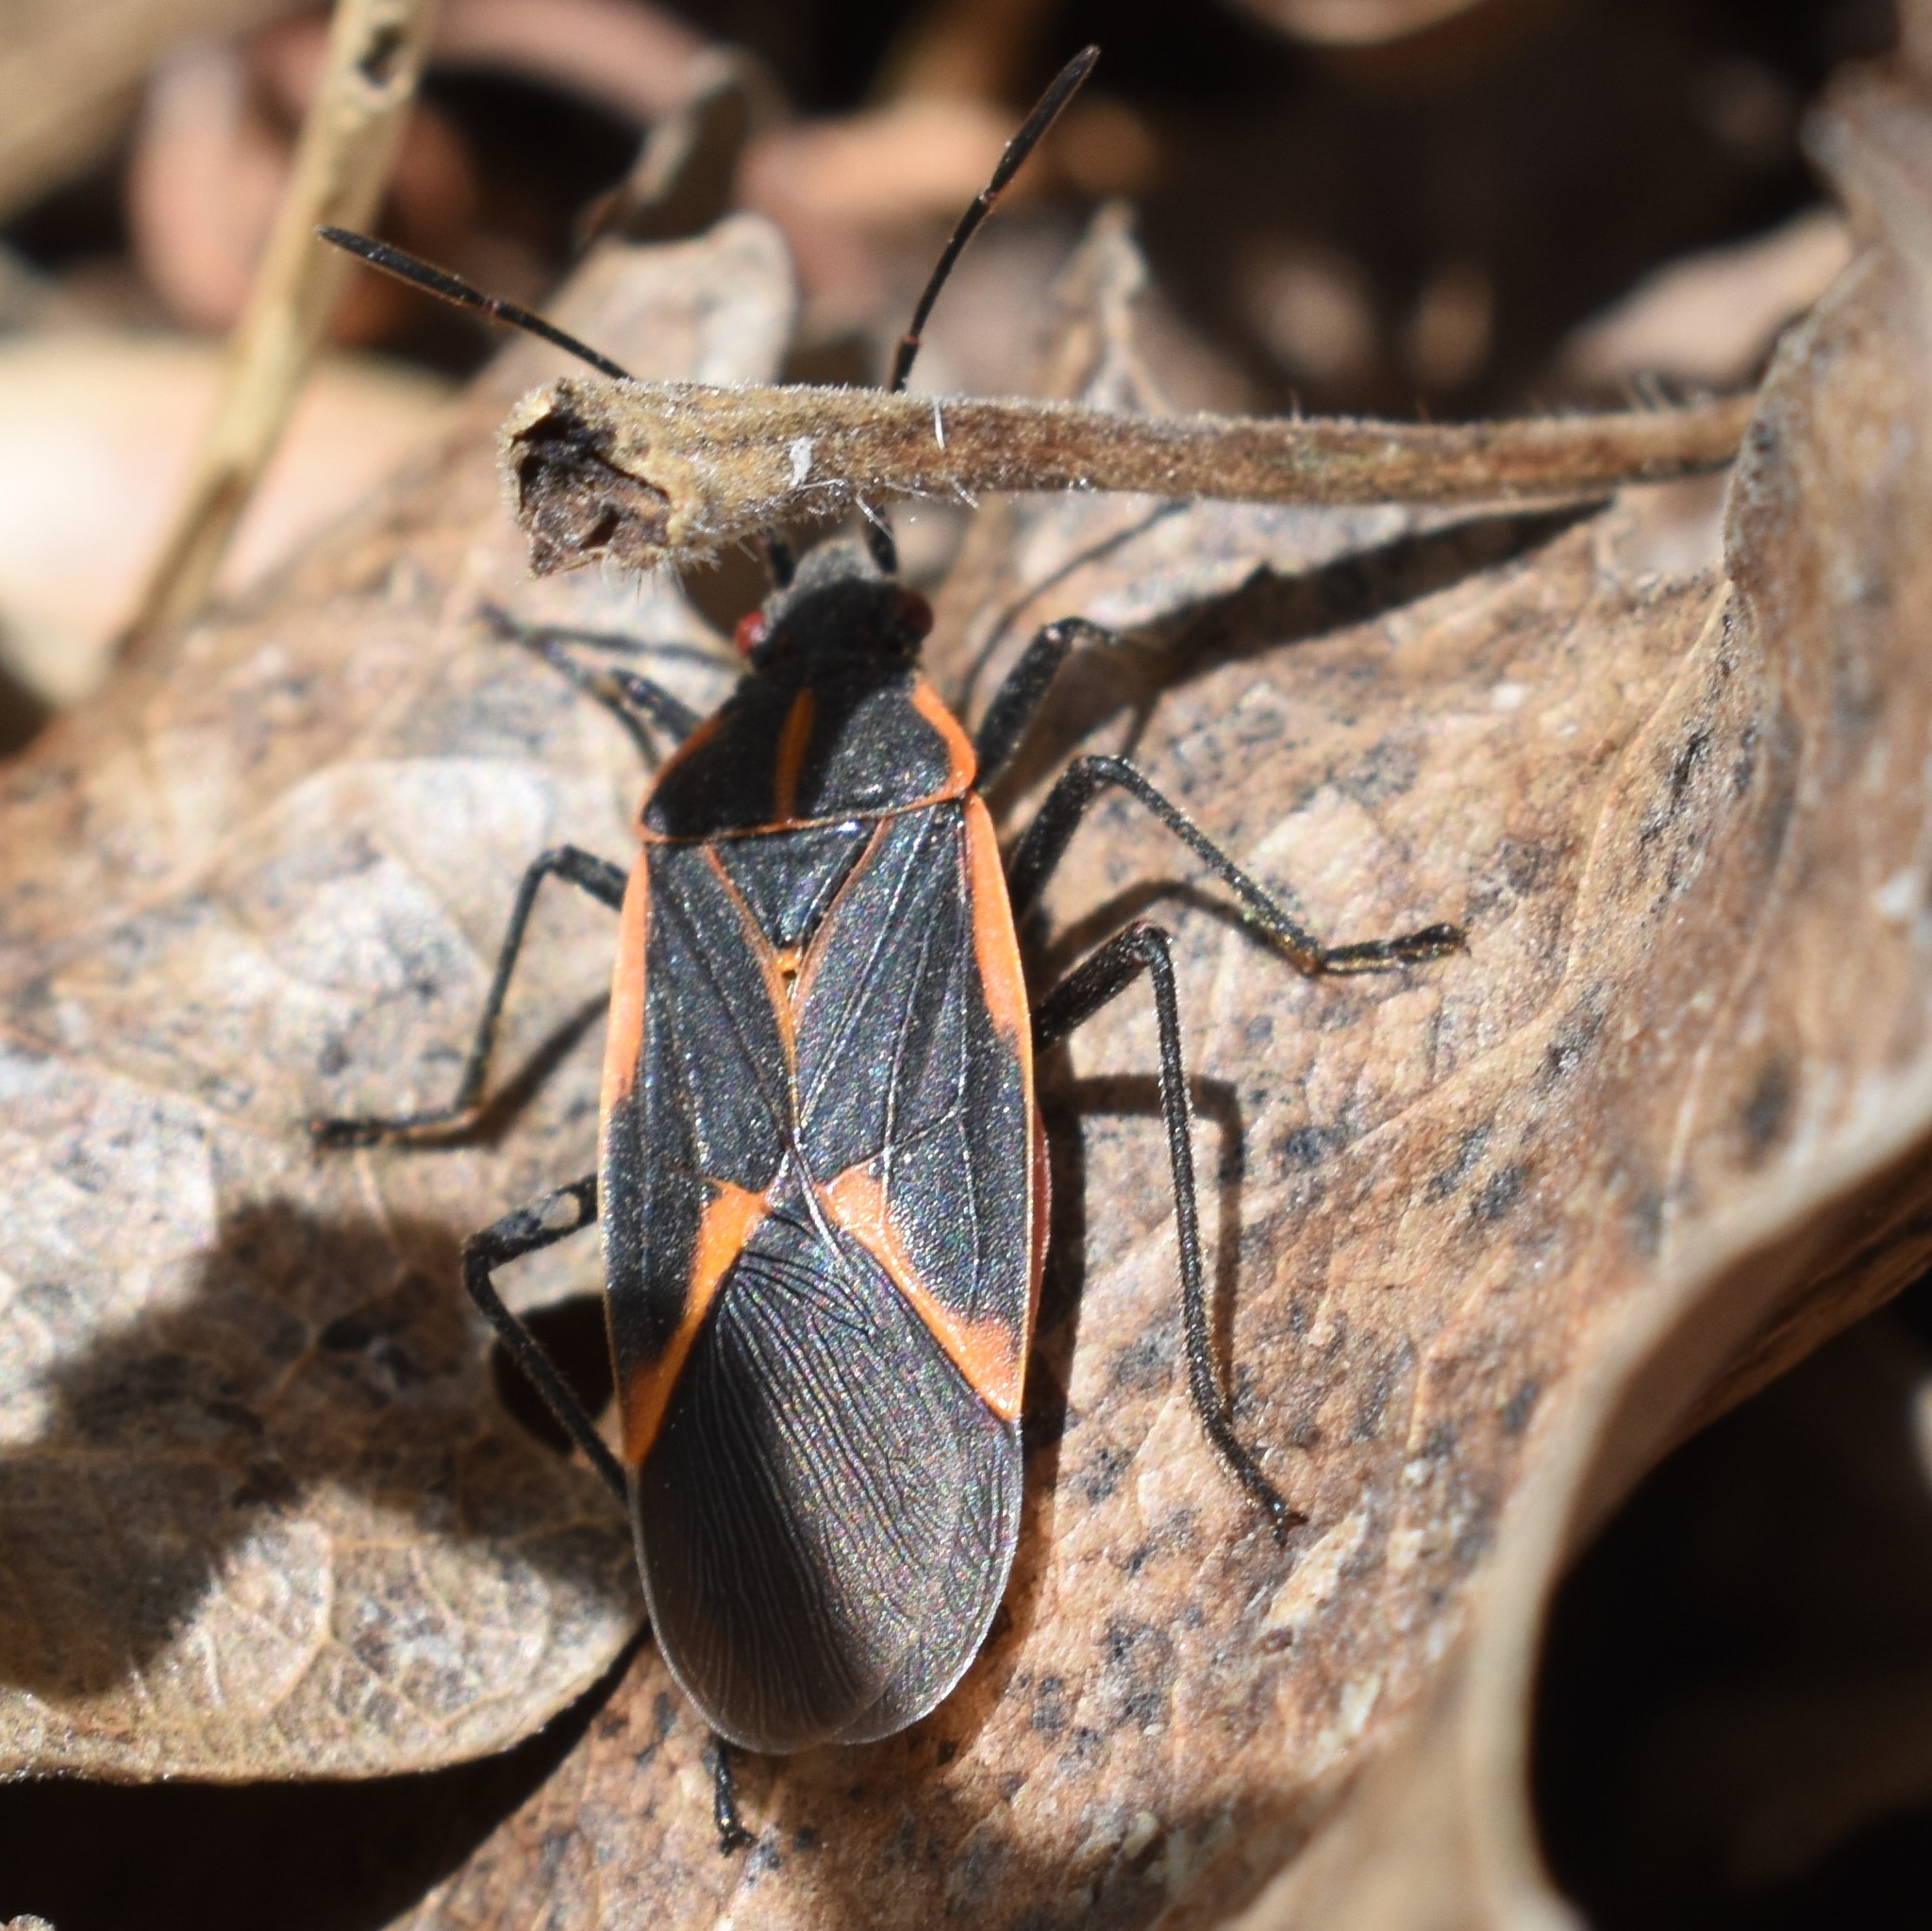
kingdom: Animalia
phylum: Arthropoda
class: Insecta
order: Hemiptera
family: Rhopalidae
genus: Boisea
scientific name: Boisea trivittata
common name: Boxelder bug
